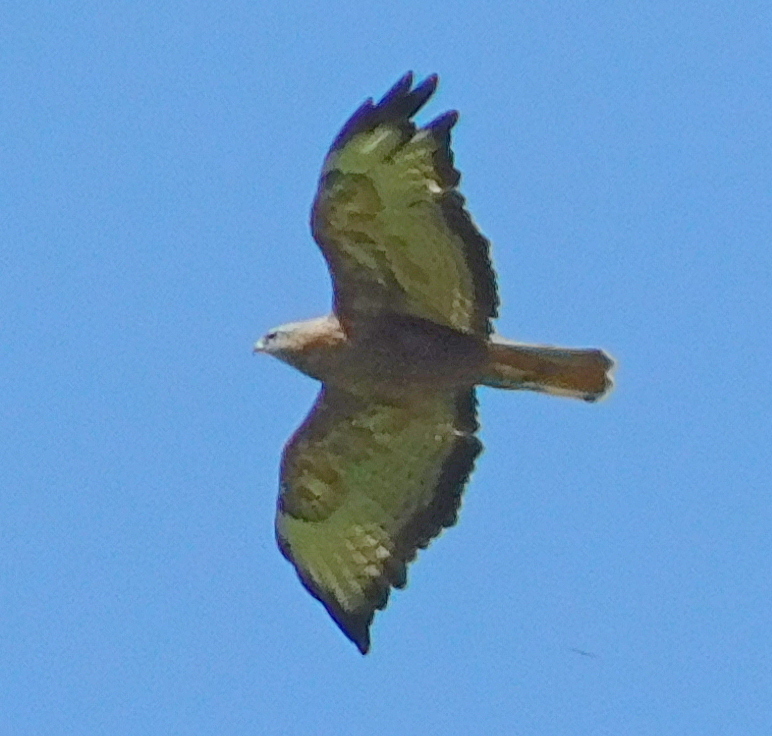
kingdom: Animalia
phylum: Chordata
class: Aves
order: Accipitriformes
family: Accipitridae
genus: Buteo
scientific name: Buteo buteo
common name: Common buzzard
